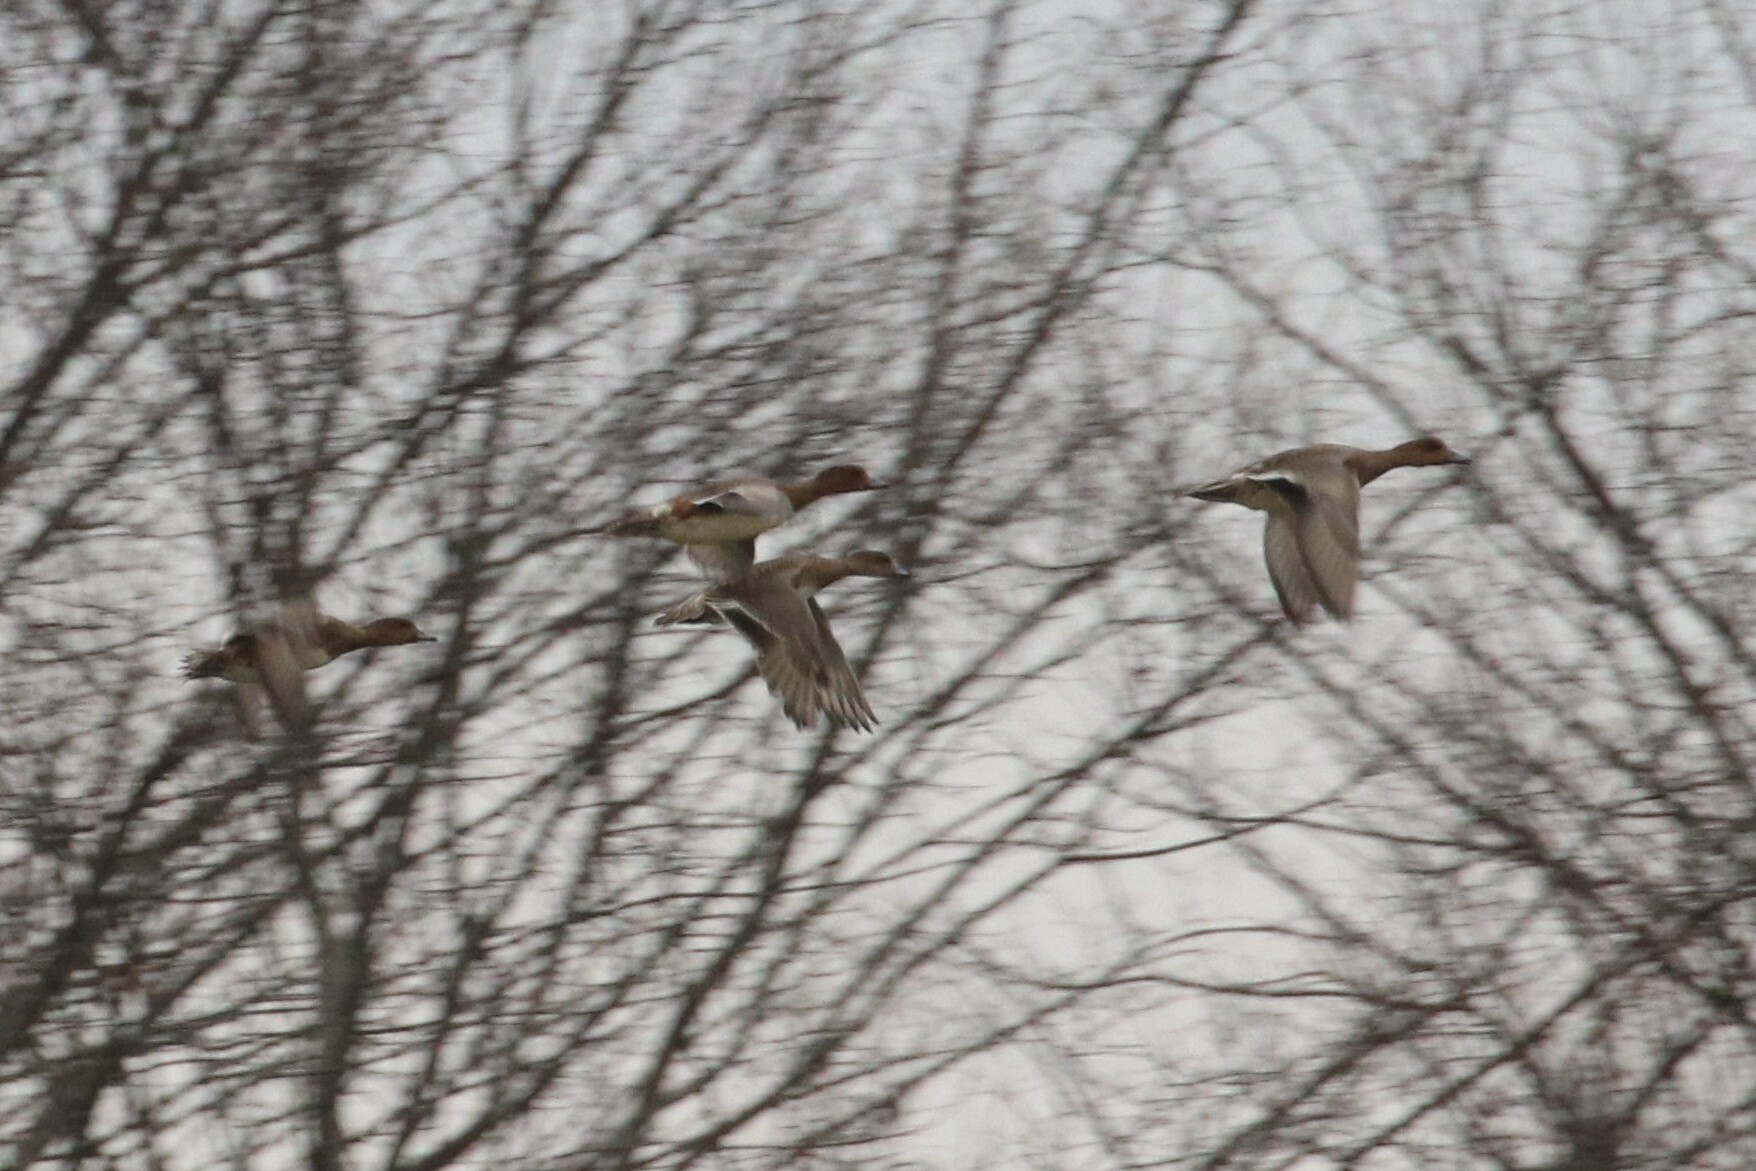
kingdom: Animalia
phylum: Chordata
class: Aves
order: Anseriformes
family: Anatidae
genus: Mareca
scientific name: Mareca penelope
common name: Eurasian wigeon
